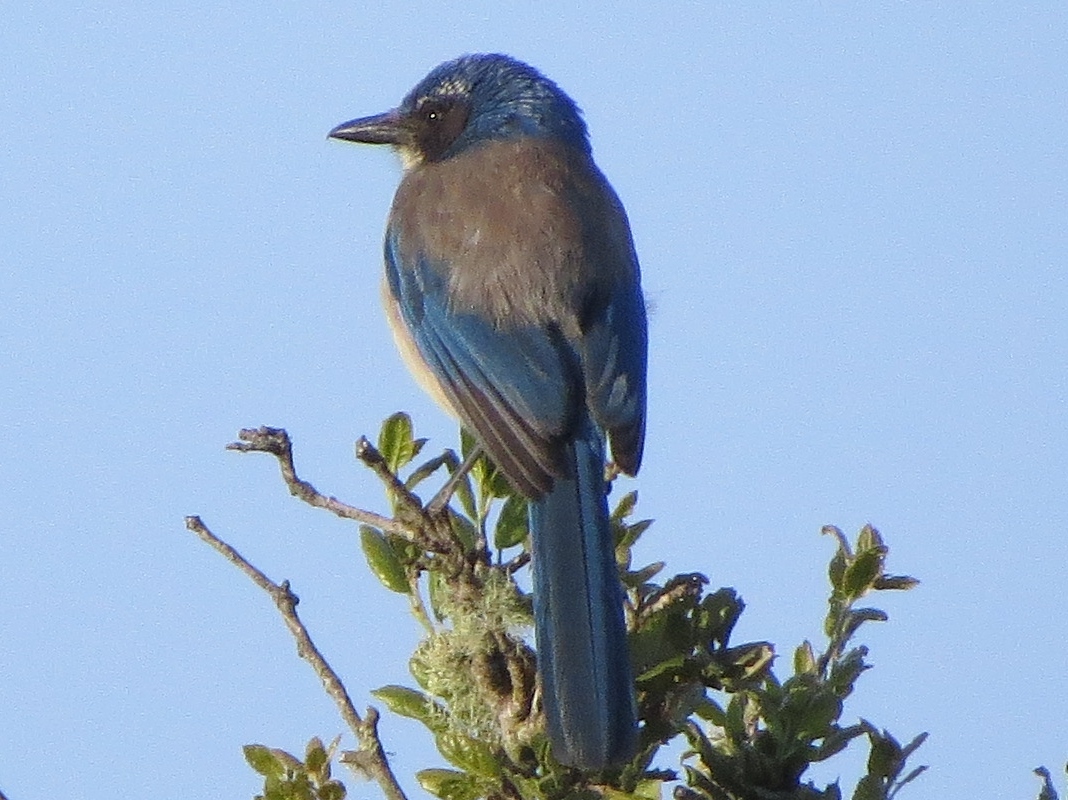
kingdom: Animalia
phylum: Chordata
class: Aves
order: Passeriformes
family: Corvidae
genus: Aphelocoma
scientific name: Aphelocoma californica
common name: California scrub-jay
